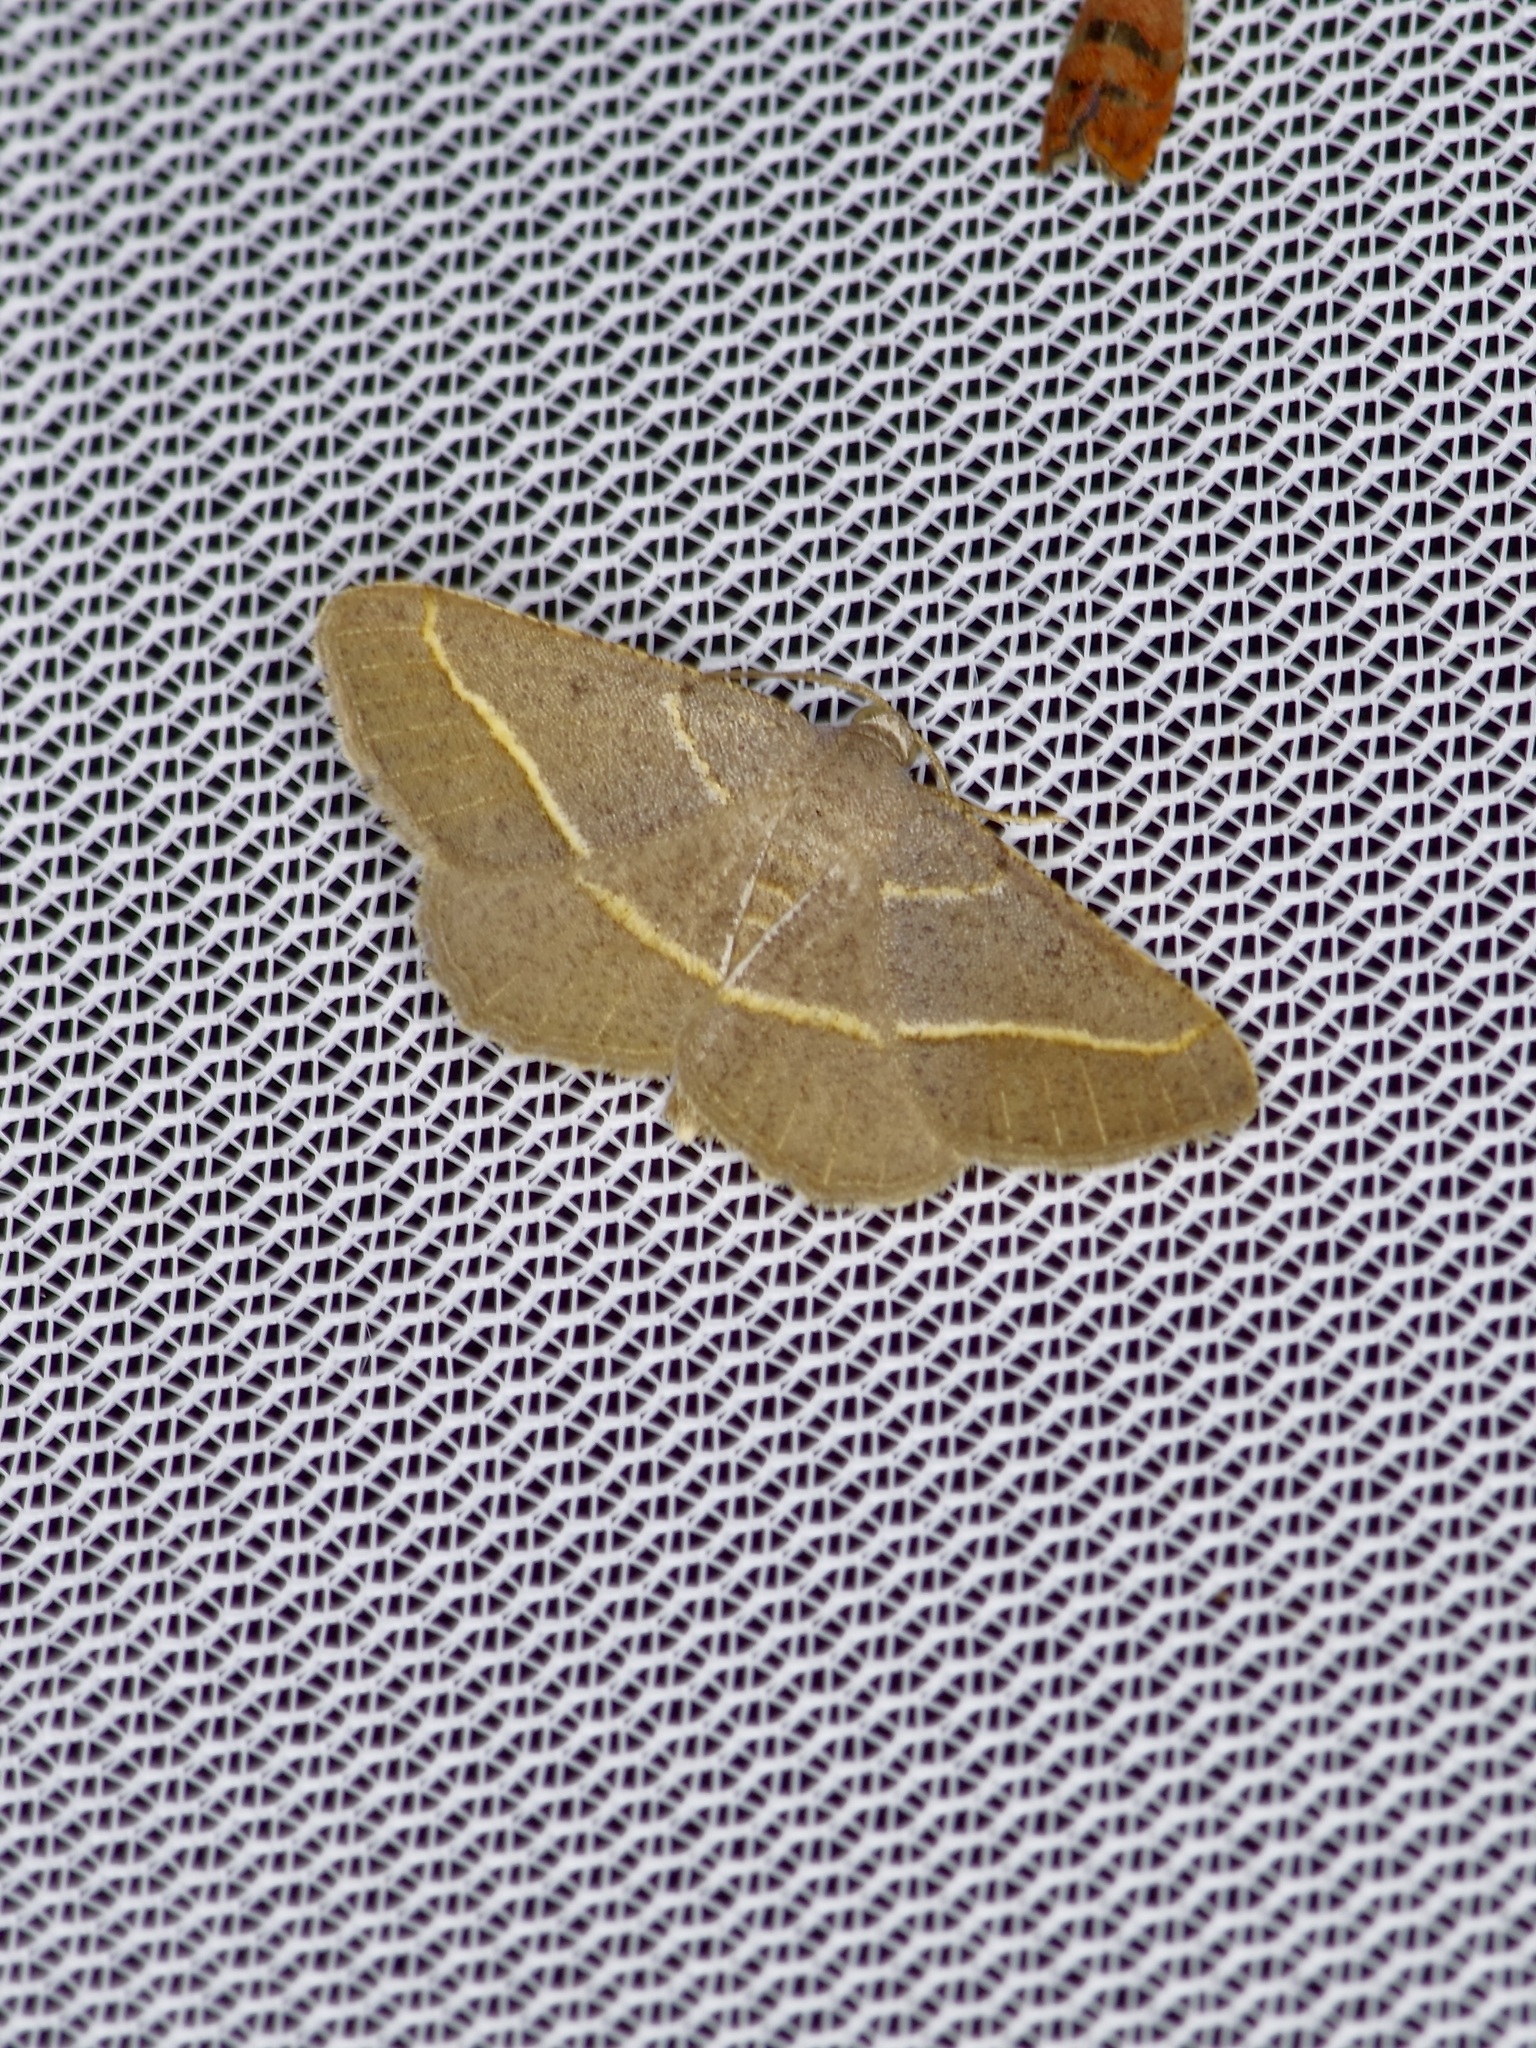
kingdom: Animalia
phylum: Arthropoda
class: Insecta
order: Lepidoptera
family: Geometridae
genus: Digrammia
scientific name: Digrammia irrorata
